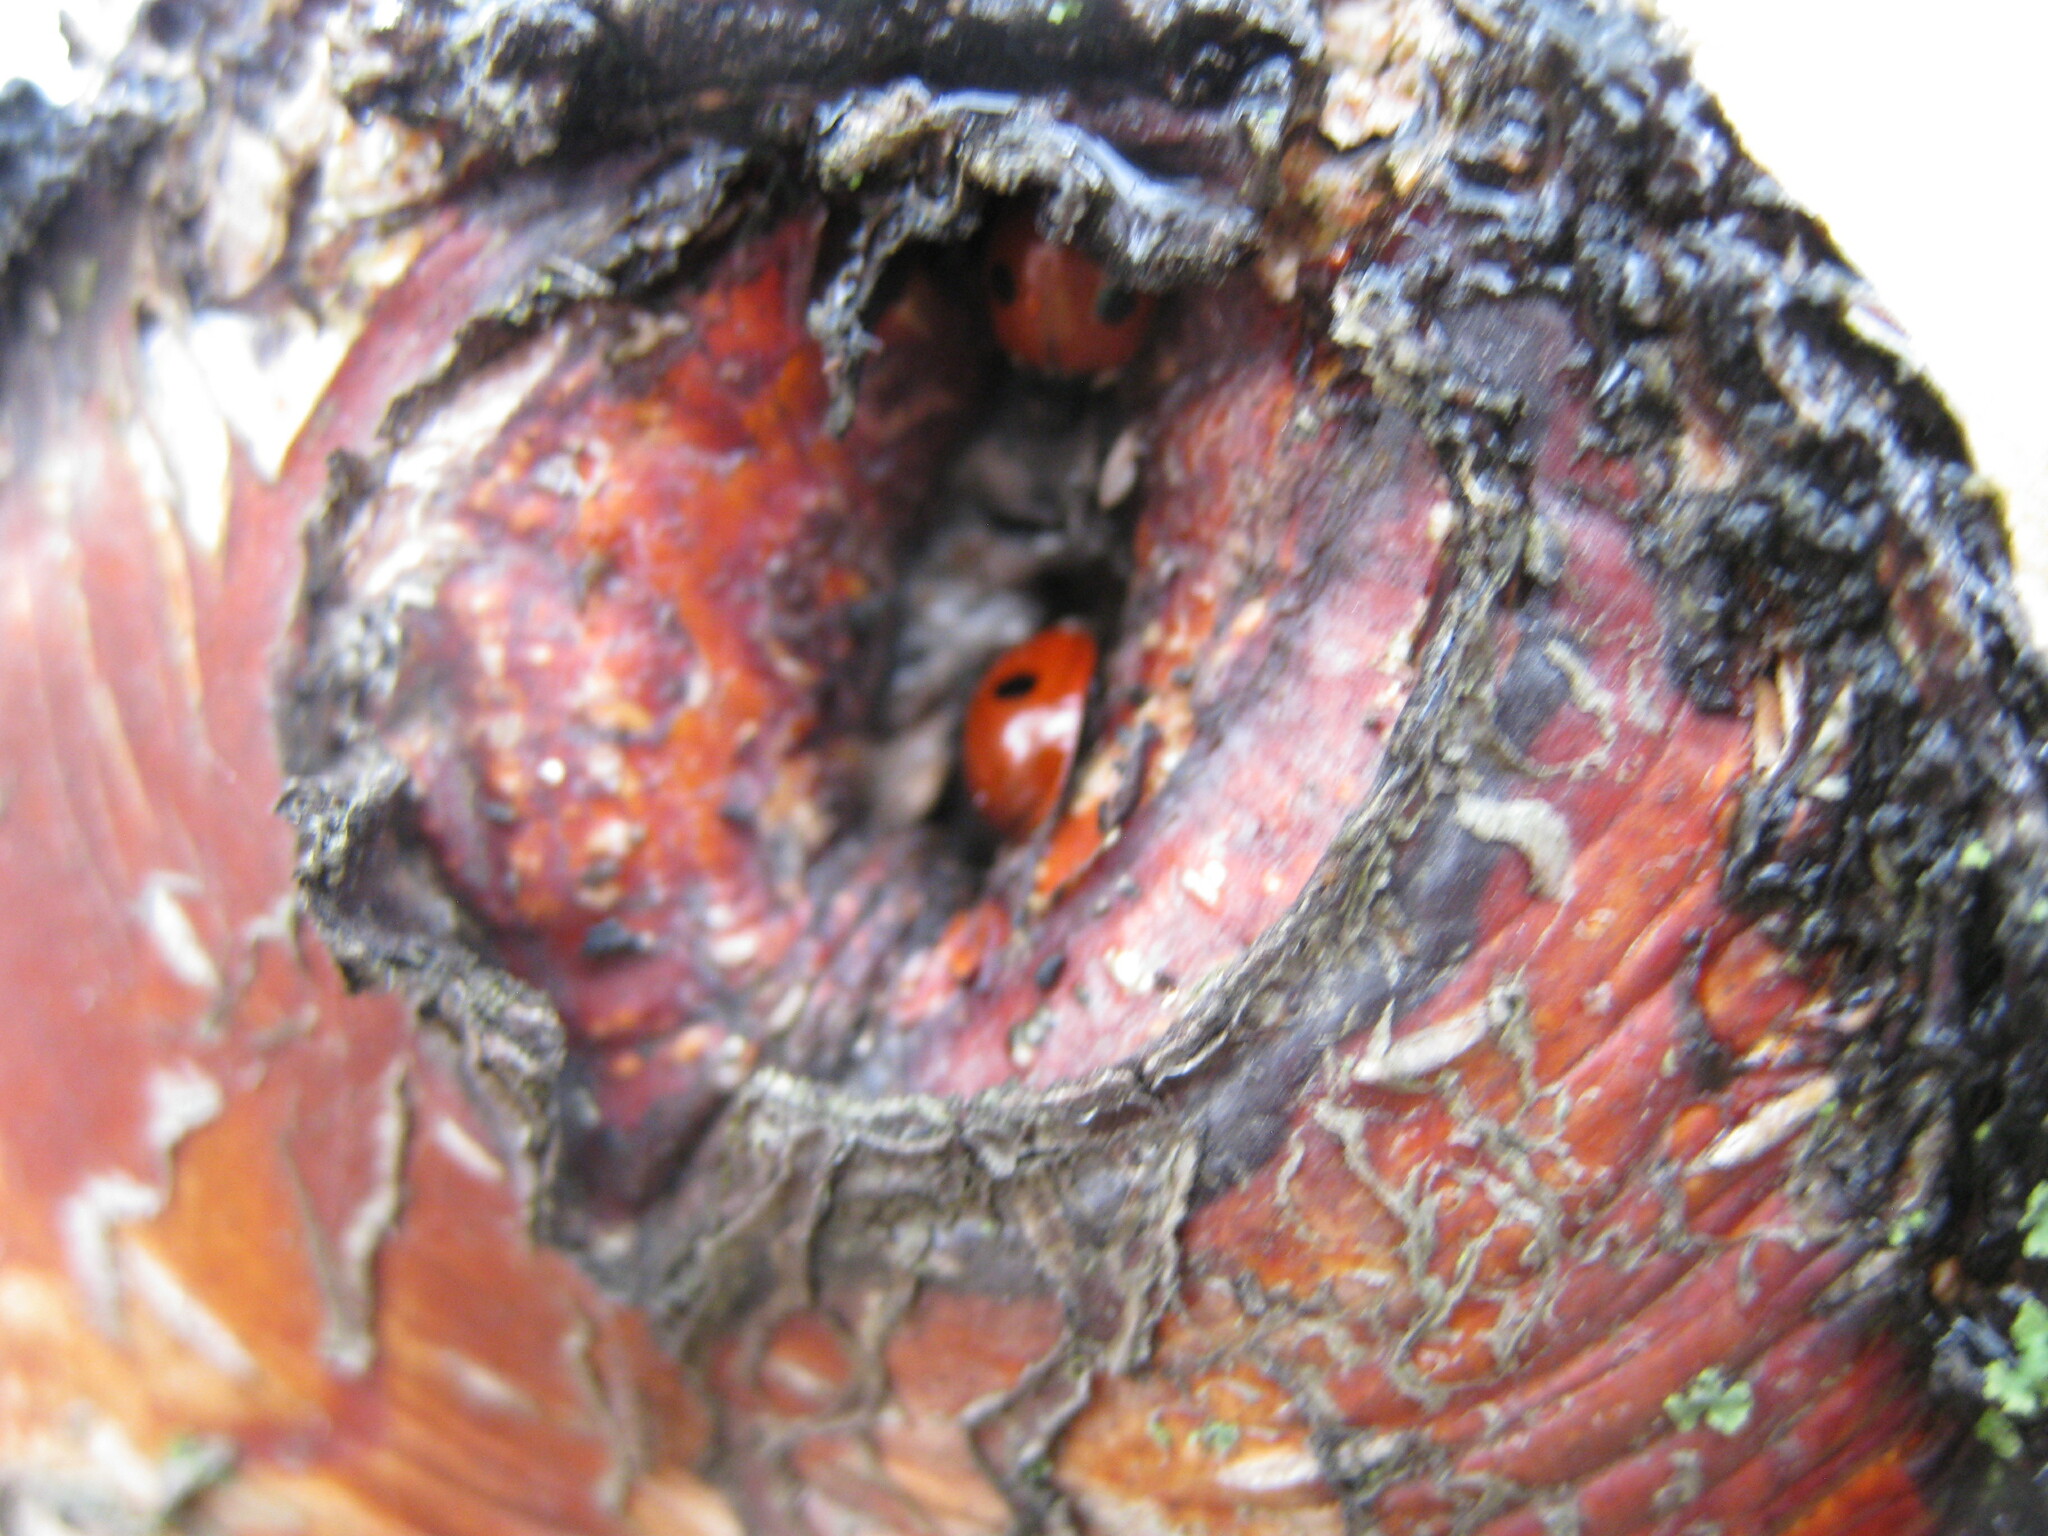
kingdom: Animalia
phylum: Arthropoda
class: Insecta
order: Coleoptera
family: Coccinellidae
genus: Adalia
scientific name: Adalia bipunctata
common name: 2-spot ladybird
